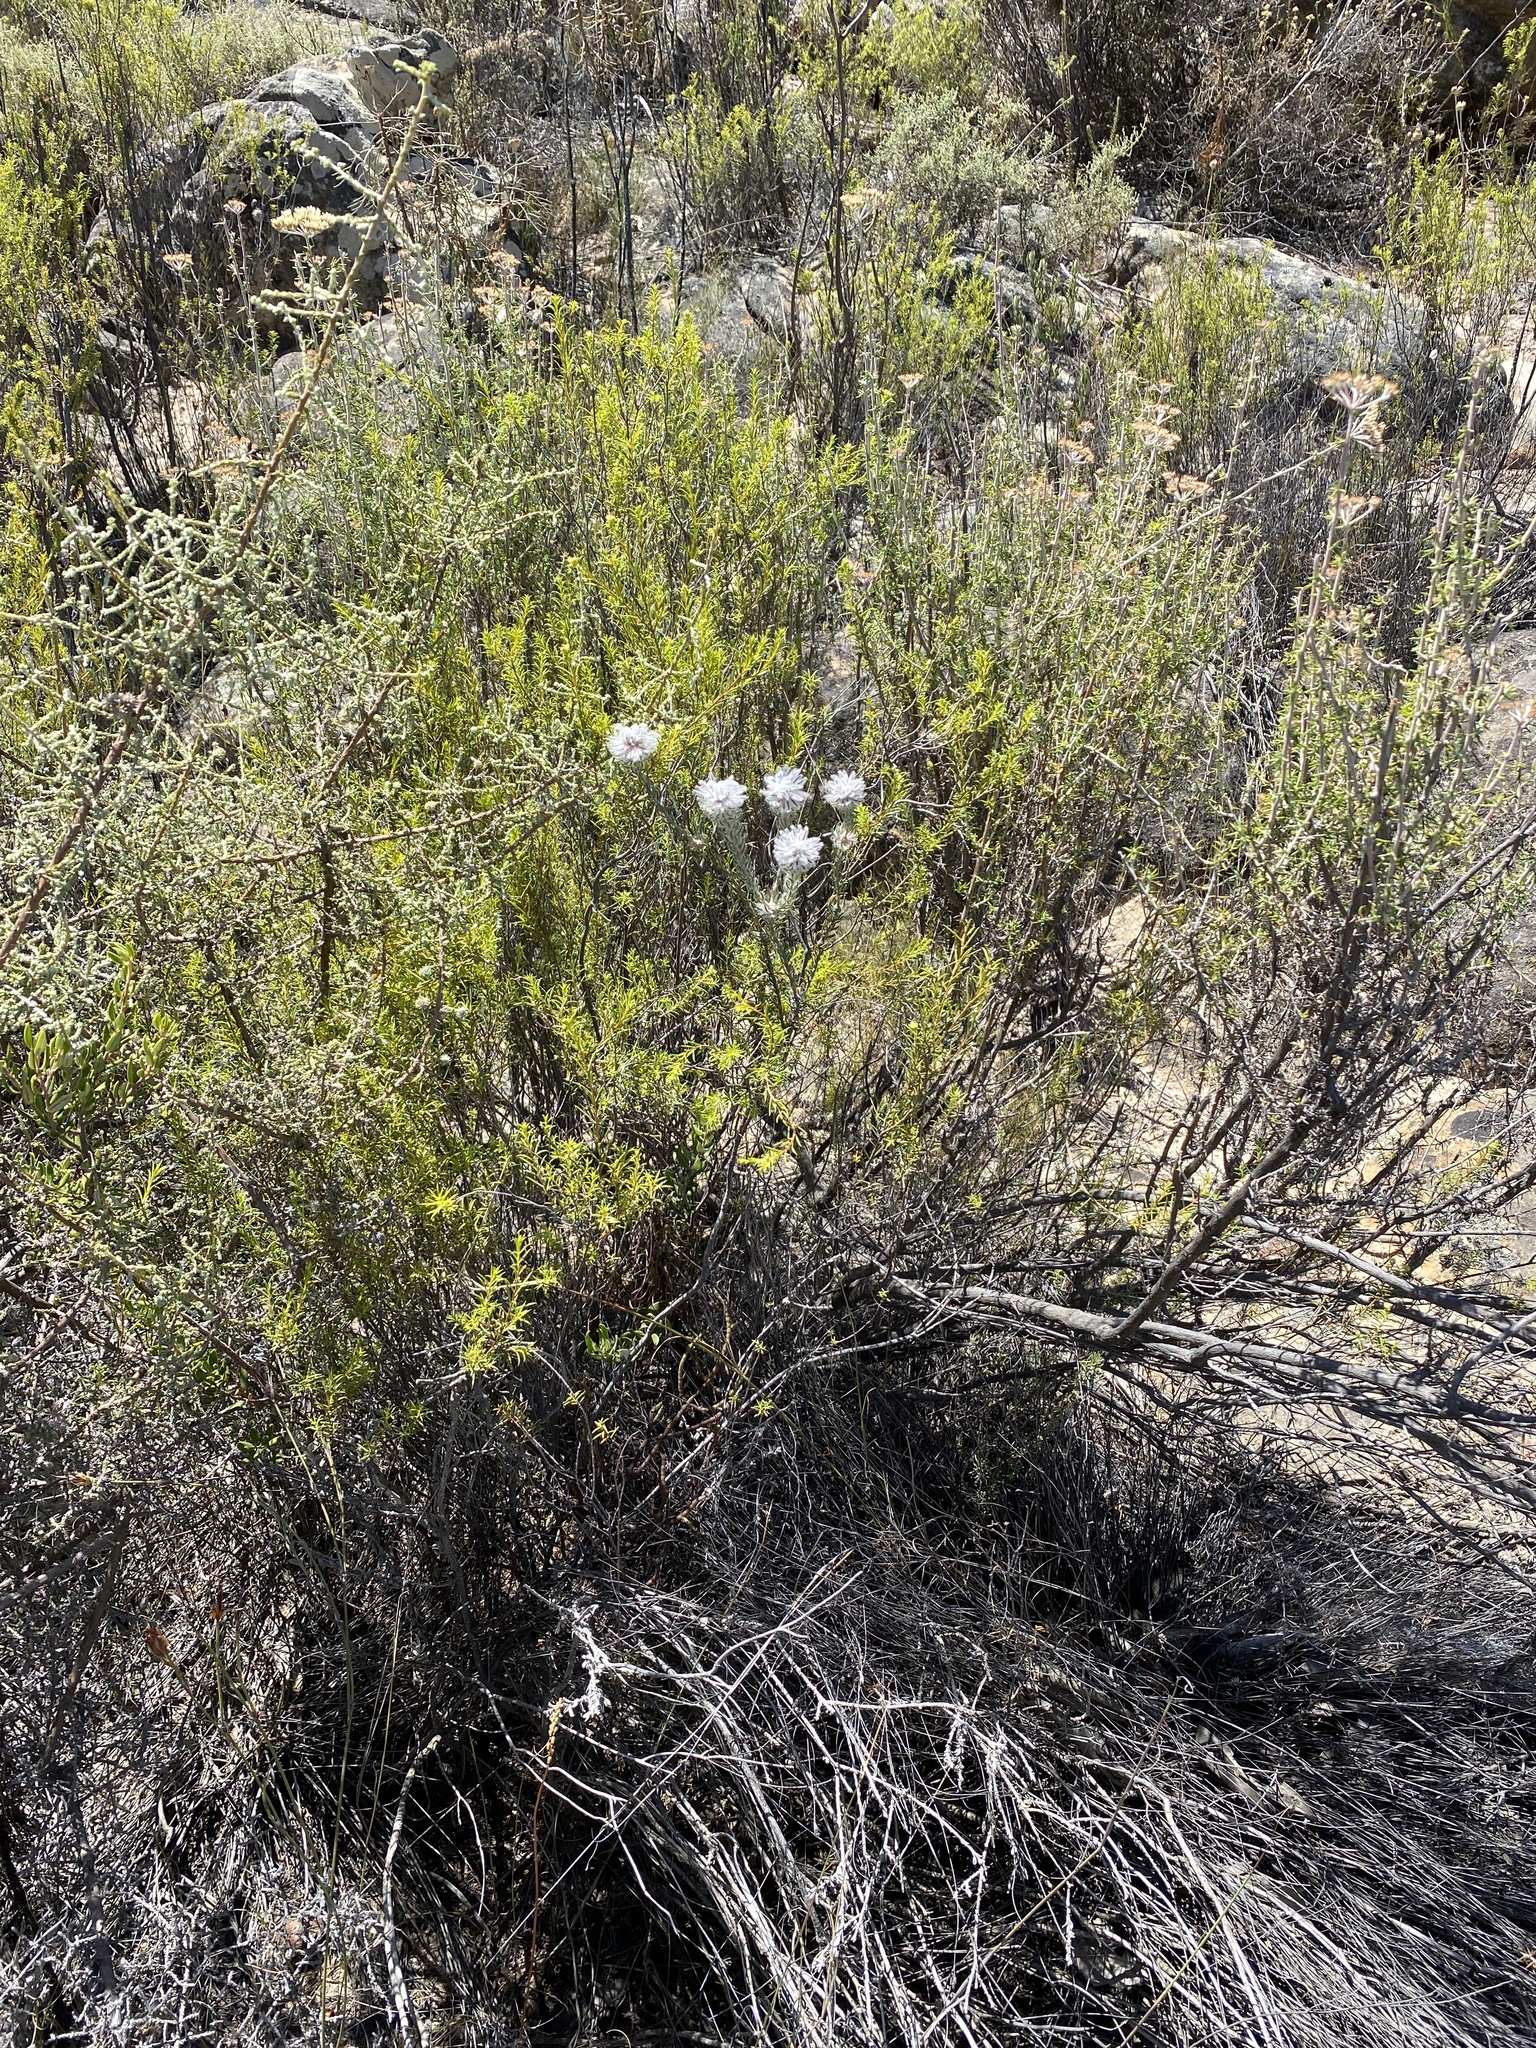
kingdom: Plantae
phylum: Tracheophyta
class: Magnoliopsida
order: Rosales
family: Rhamnaceae
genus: Phylica
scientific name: Phylica leipoldtii
